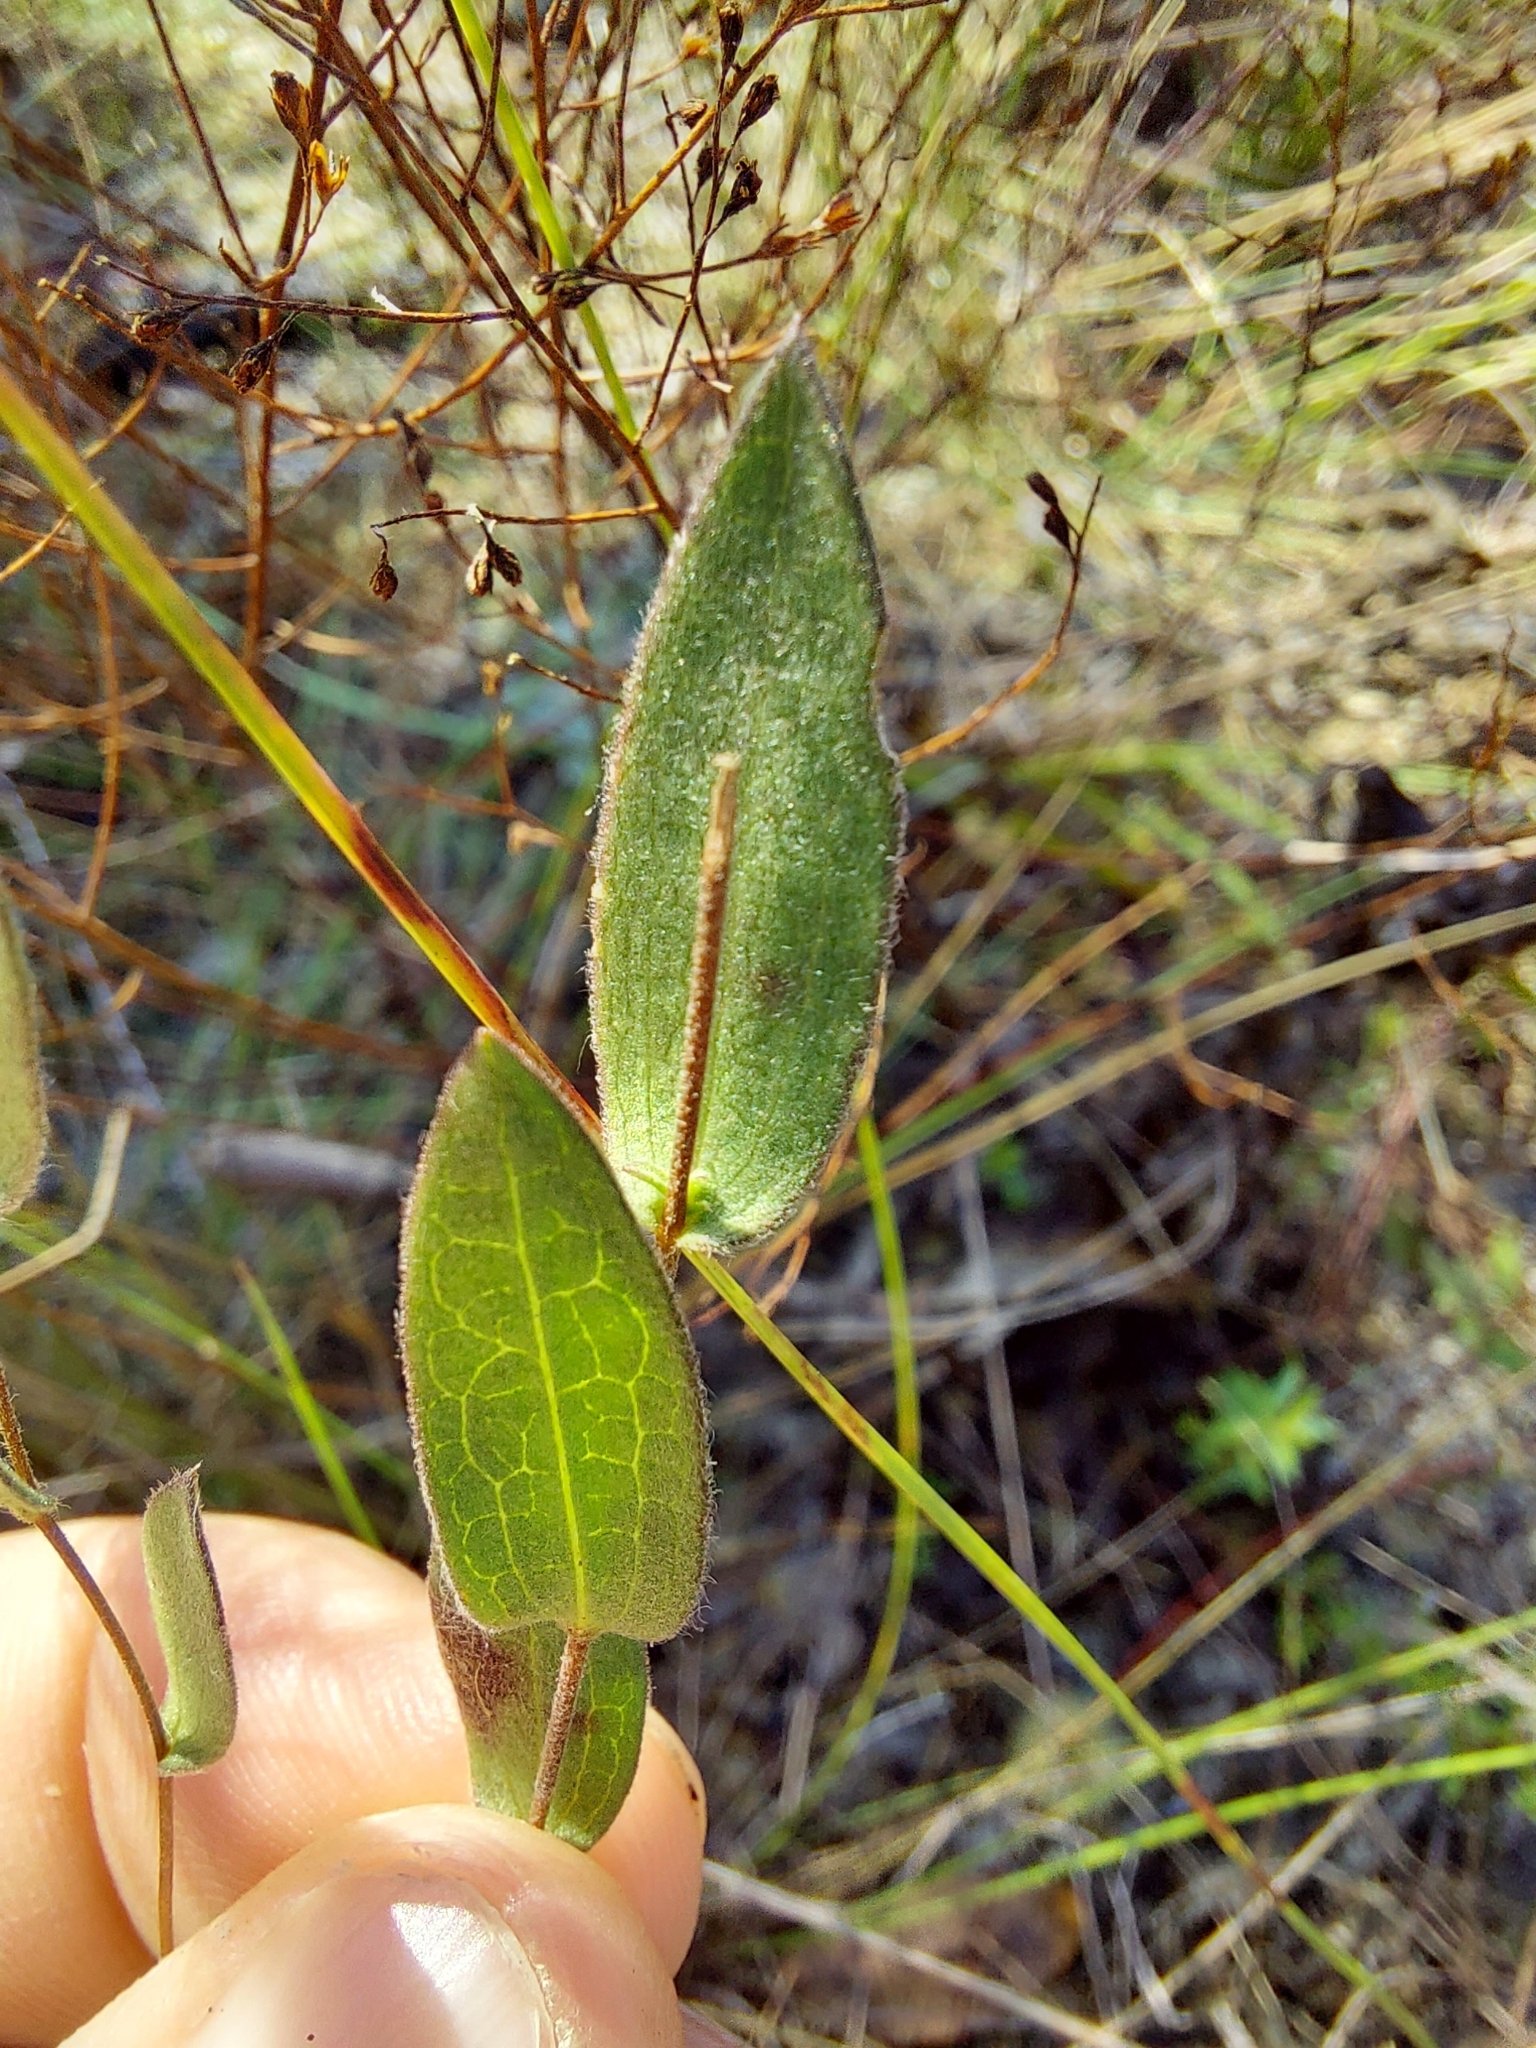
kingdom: Plantae
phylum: Tracheophyta
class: Magnoliopsida
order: Asterales
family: Asteraceae
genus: Symphyotrichum
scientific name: Symphyotrichum concolor
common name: Eastern silver aster
